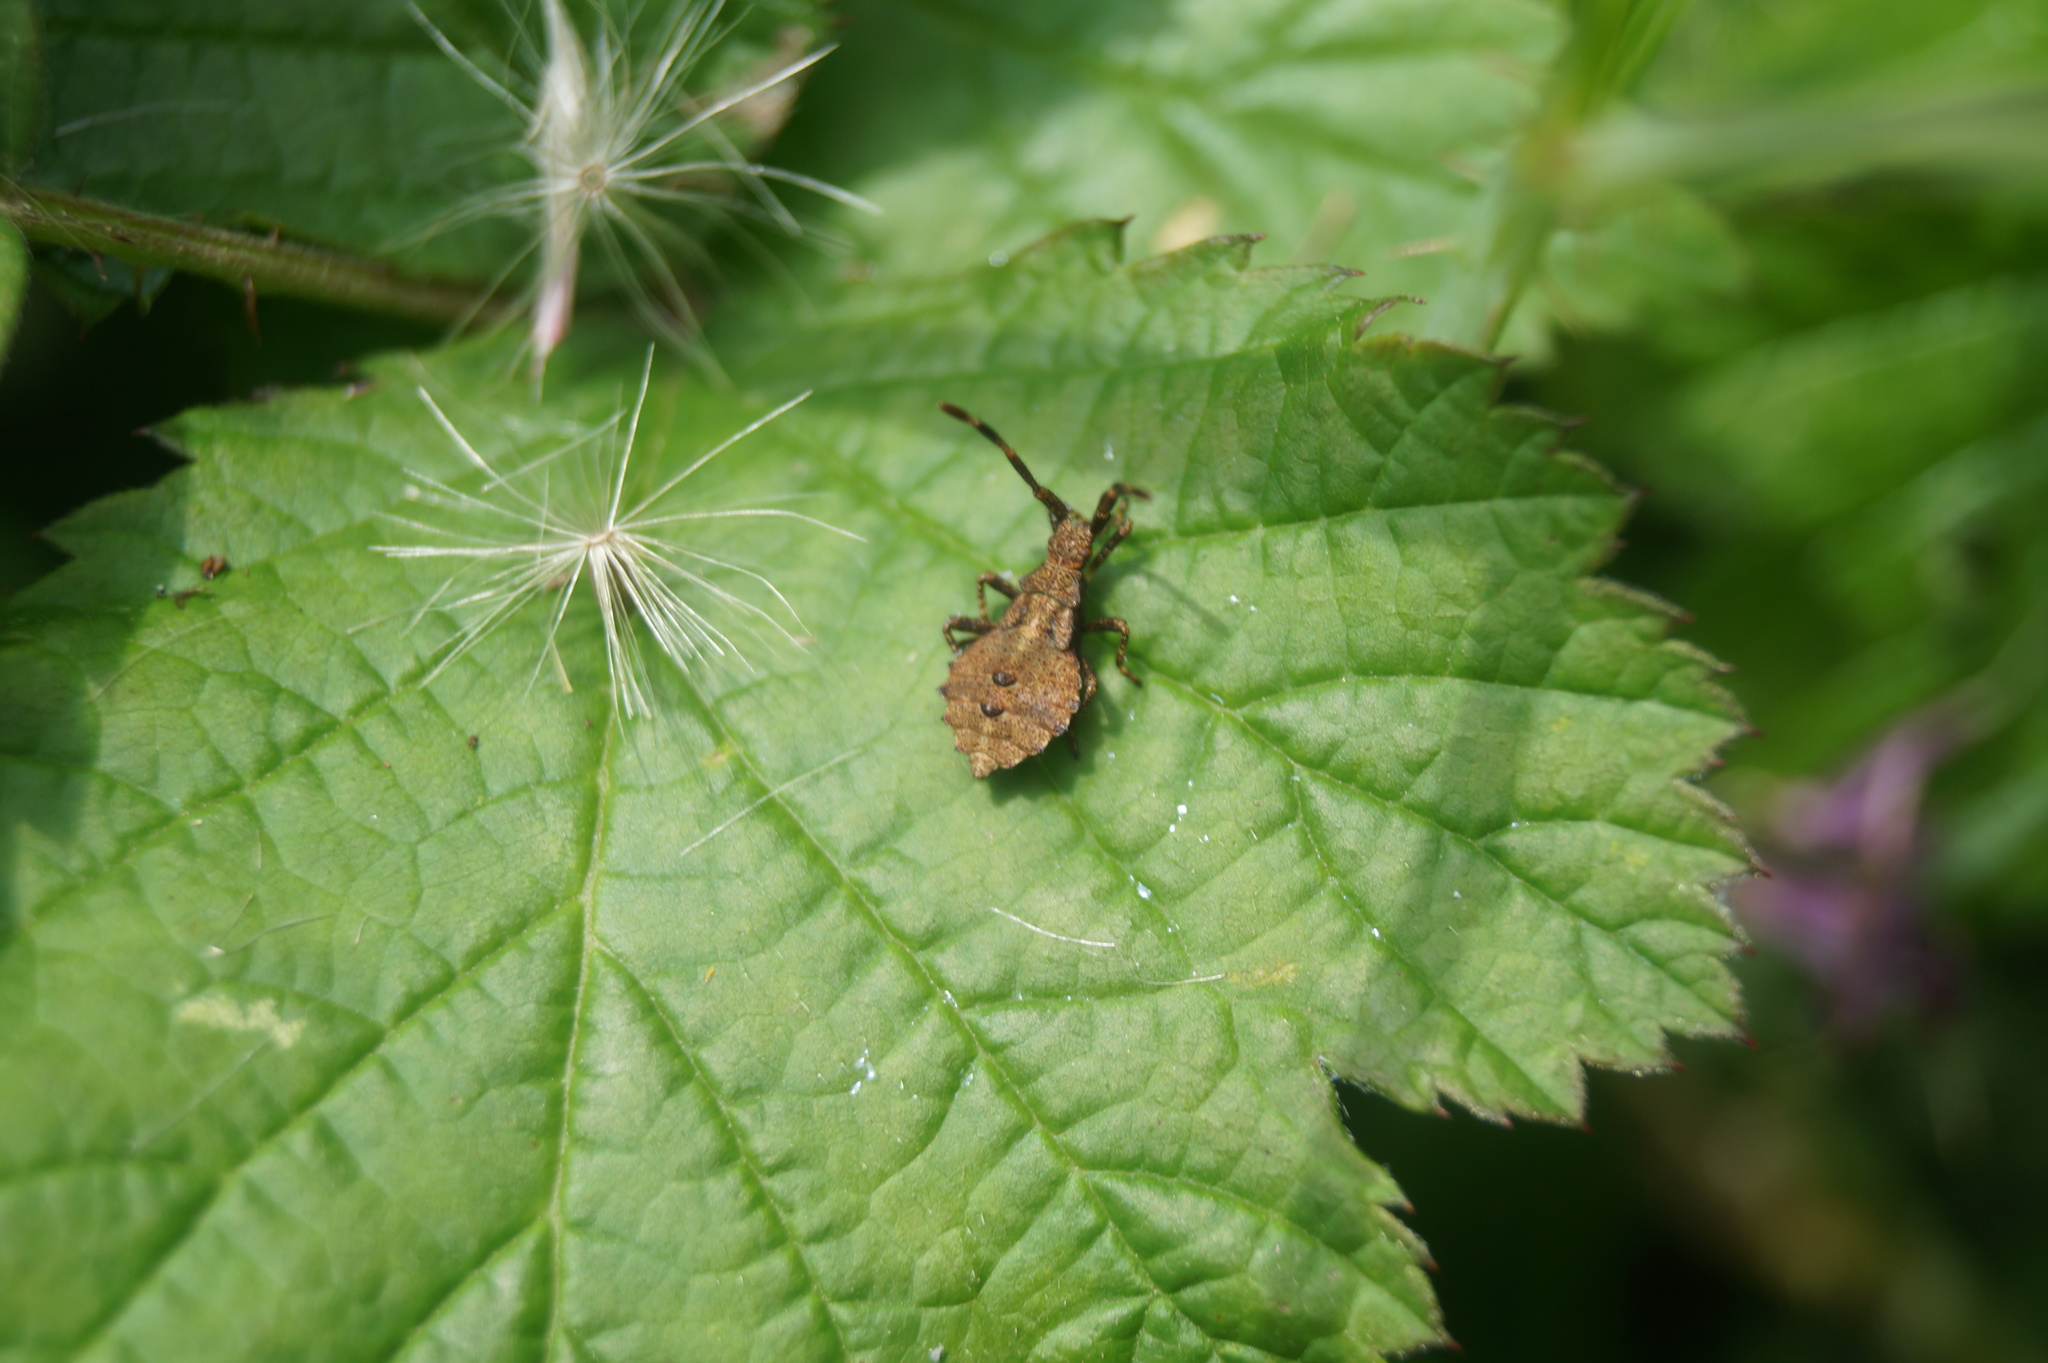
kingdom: Animalia
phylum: Arthropoda
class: Insecta
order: Hemiptera
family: Coreidae
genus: Coreus
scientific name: Coreus marginatus
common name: Dock bug
